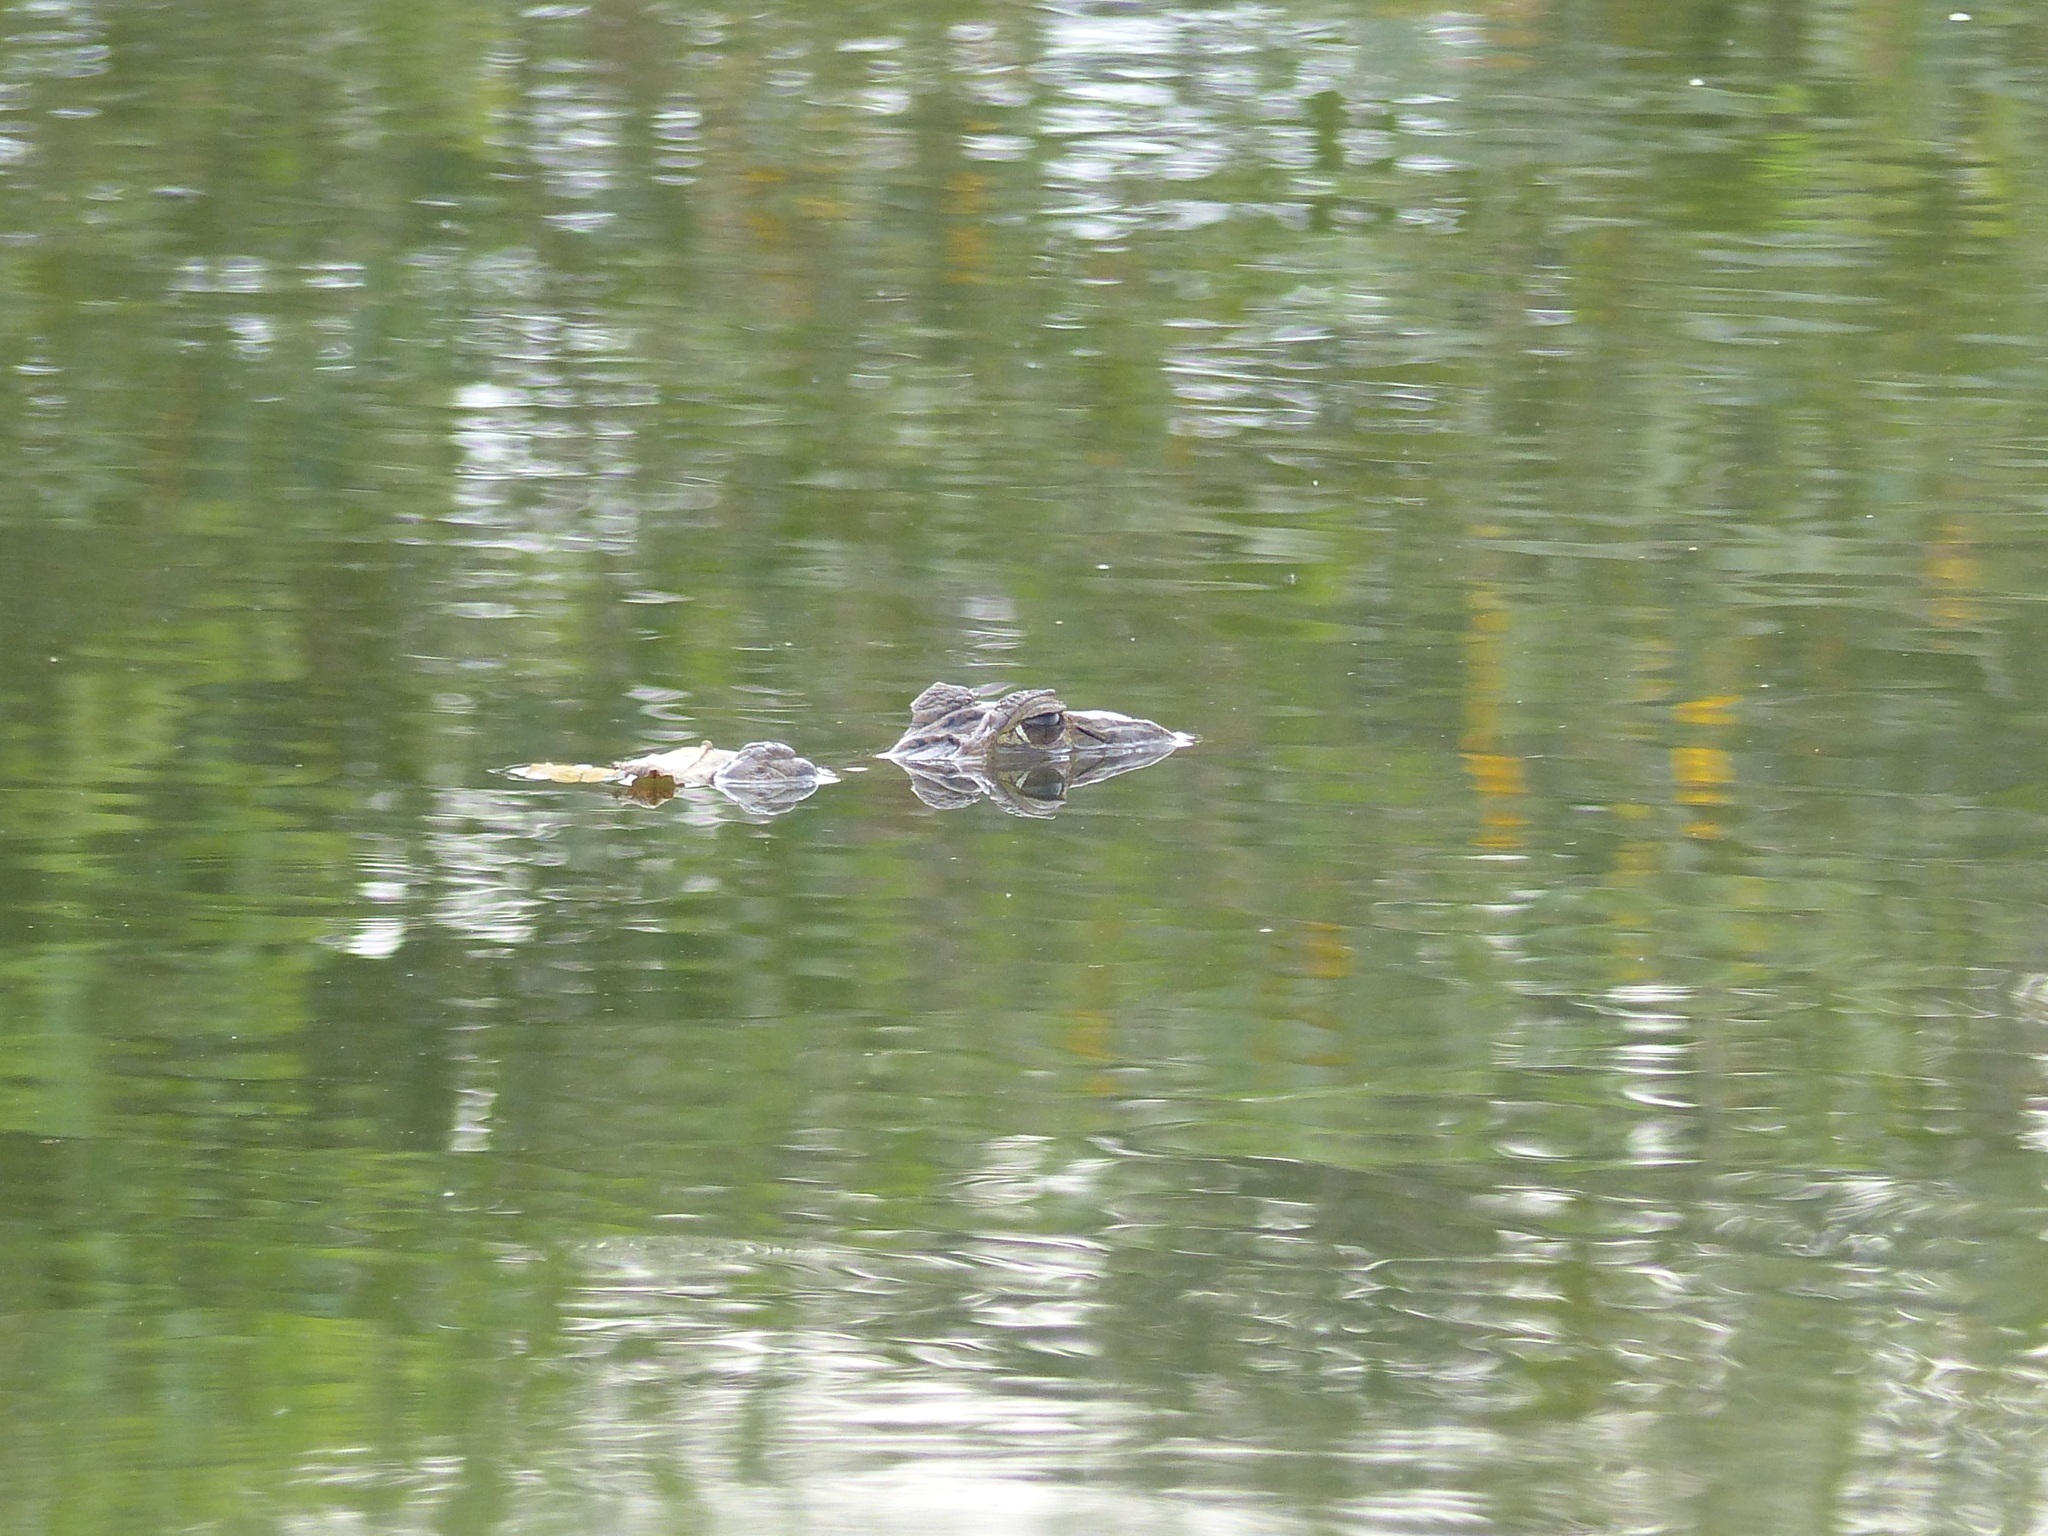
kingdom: Animalia
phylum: Chordata
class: Crocodylia
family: Alligatoridae
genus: Caiman
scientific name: Caiman crocodilus
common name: Common caiman
